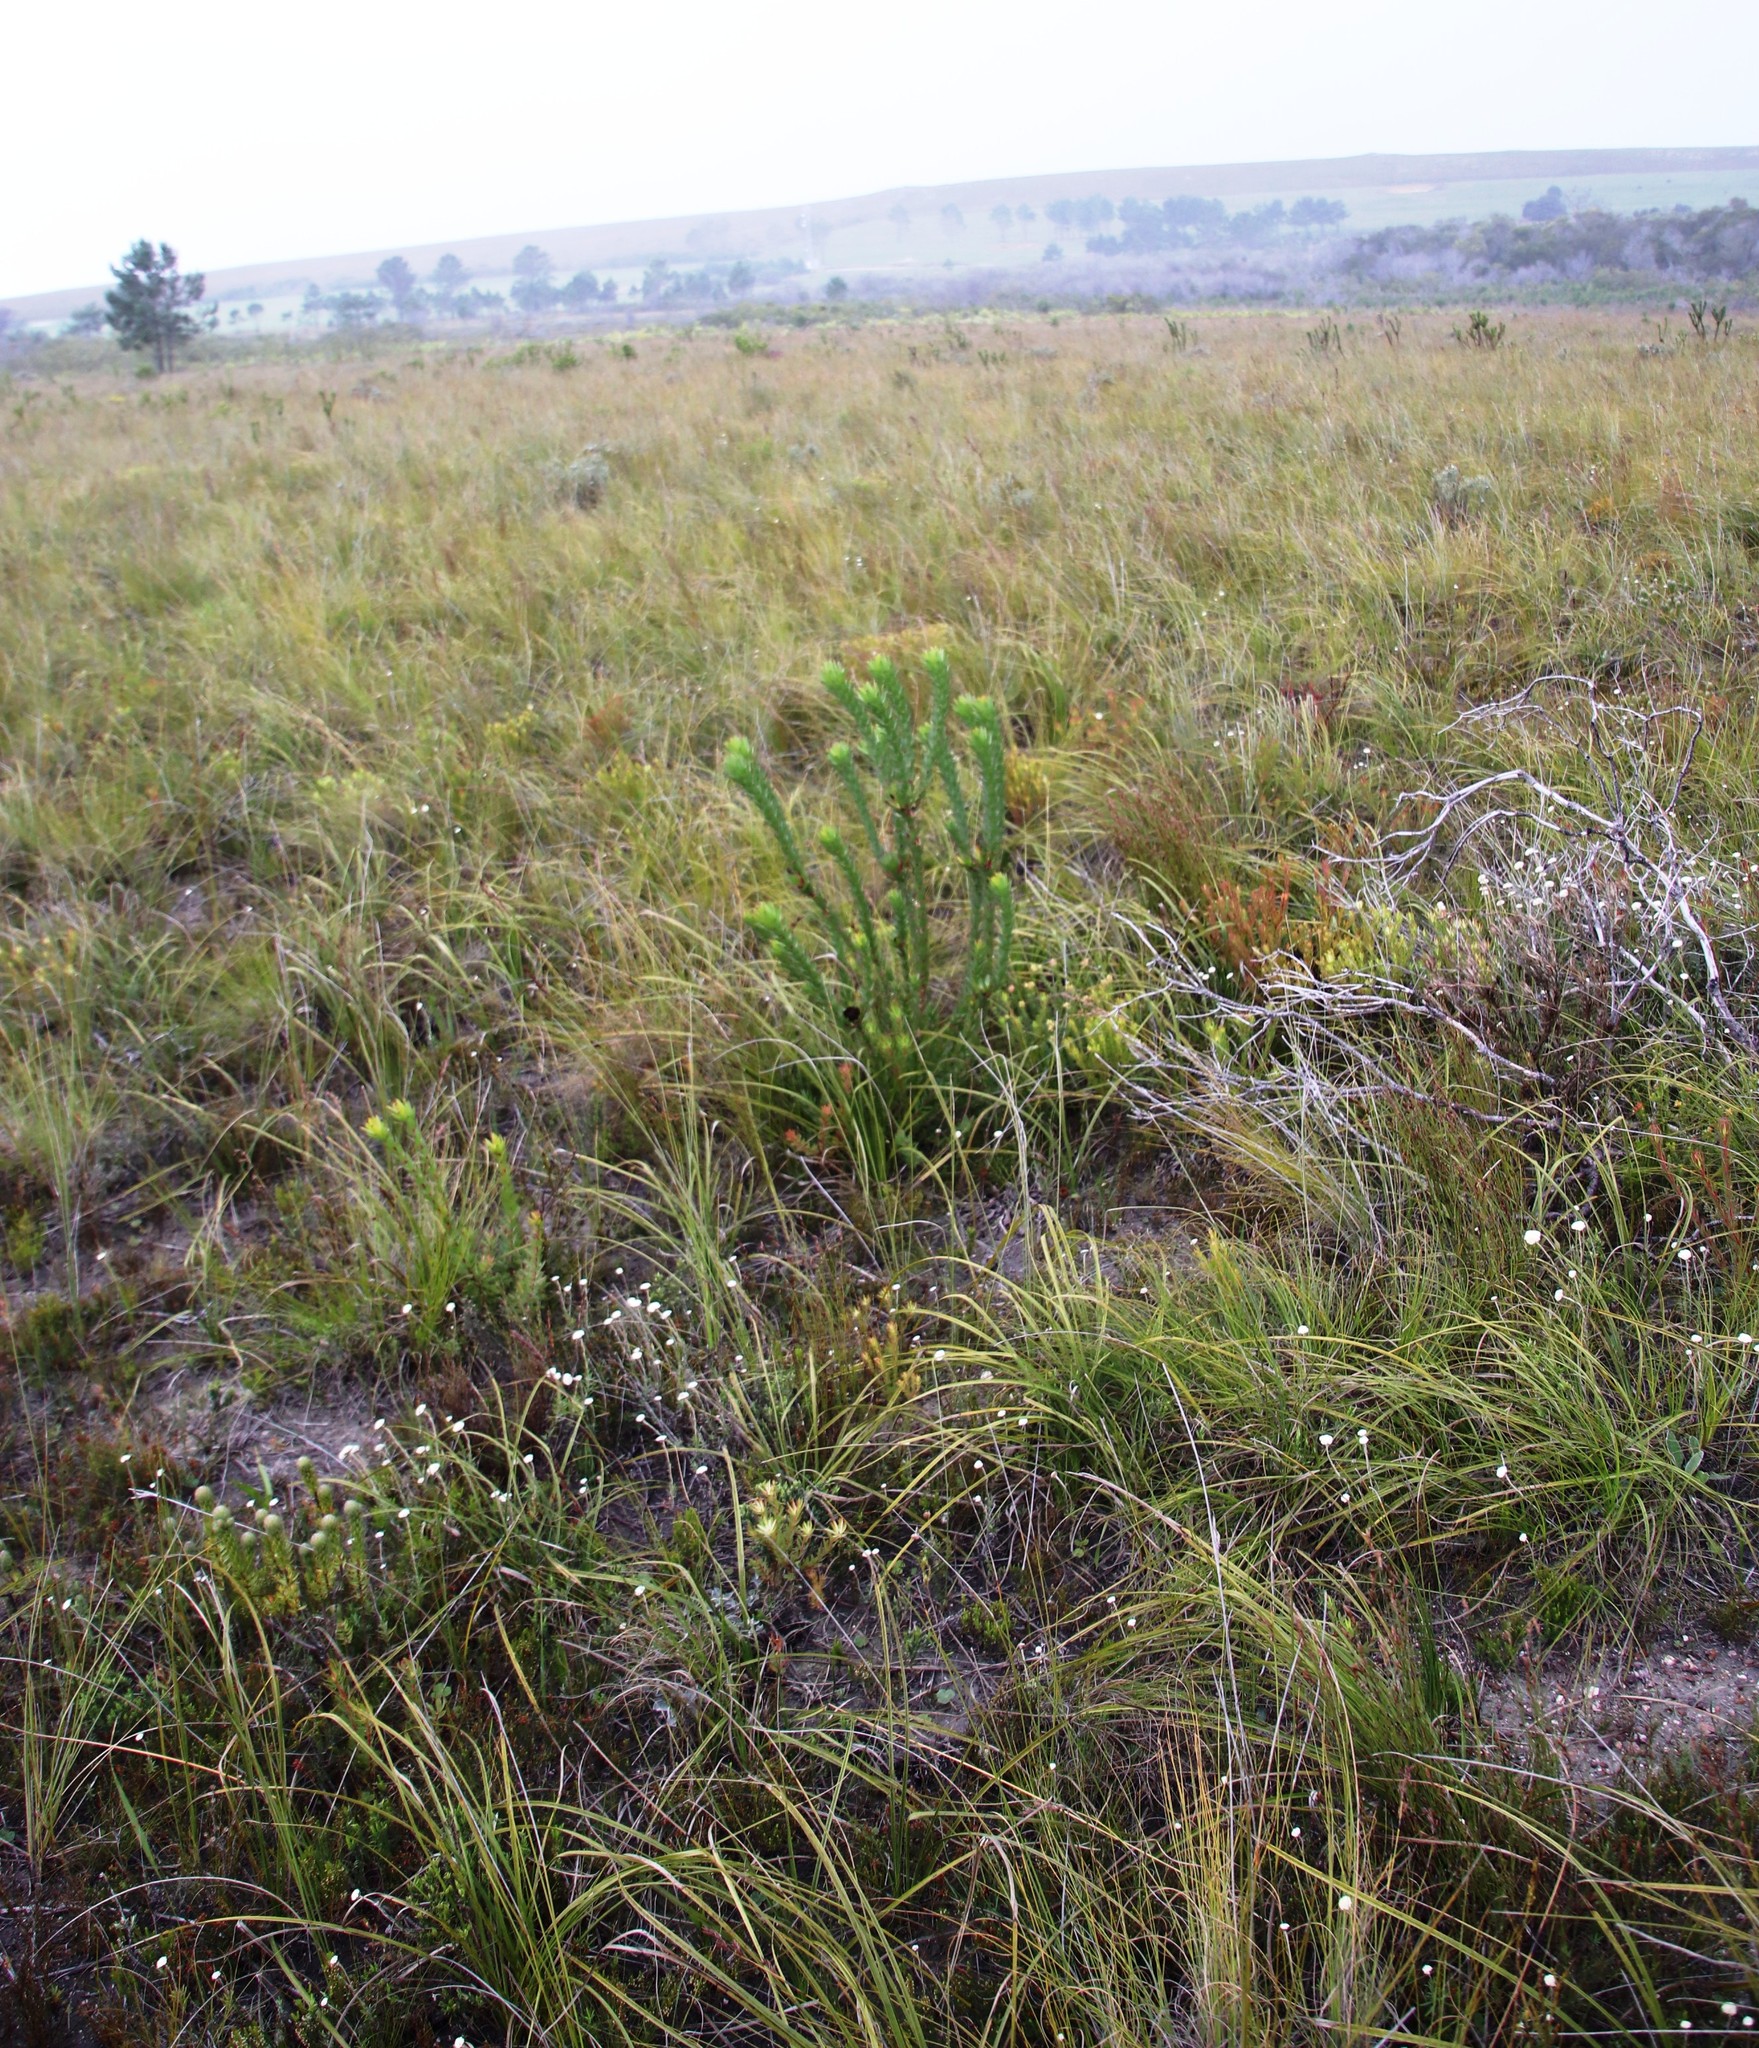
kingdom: Plantae
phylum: Tracheophyta
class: Magnoliopsida
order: Proteales
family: Proteaceae
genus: Leucadendron
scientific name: Leucadendron elimense
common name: Elim conebush
